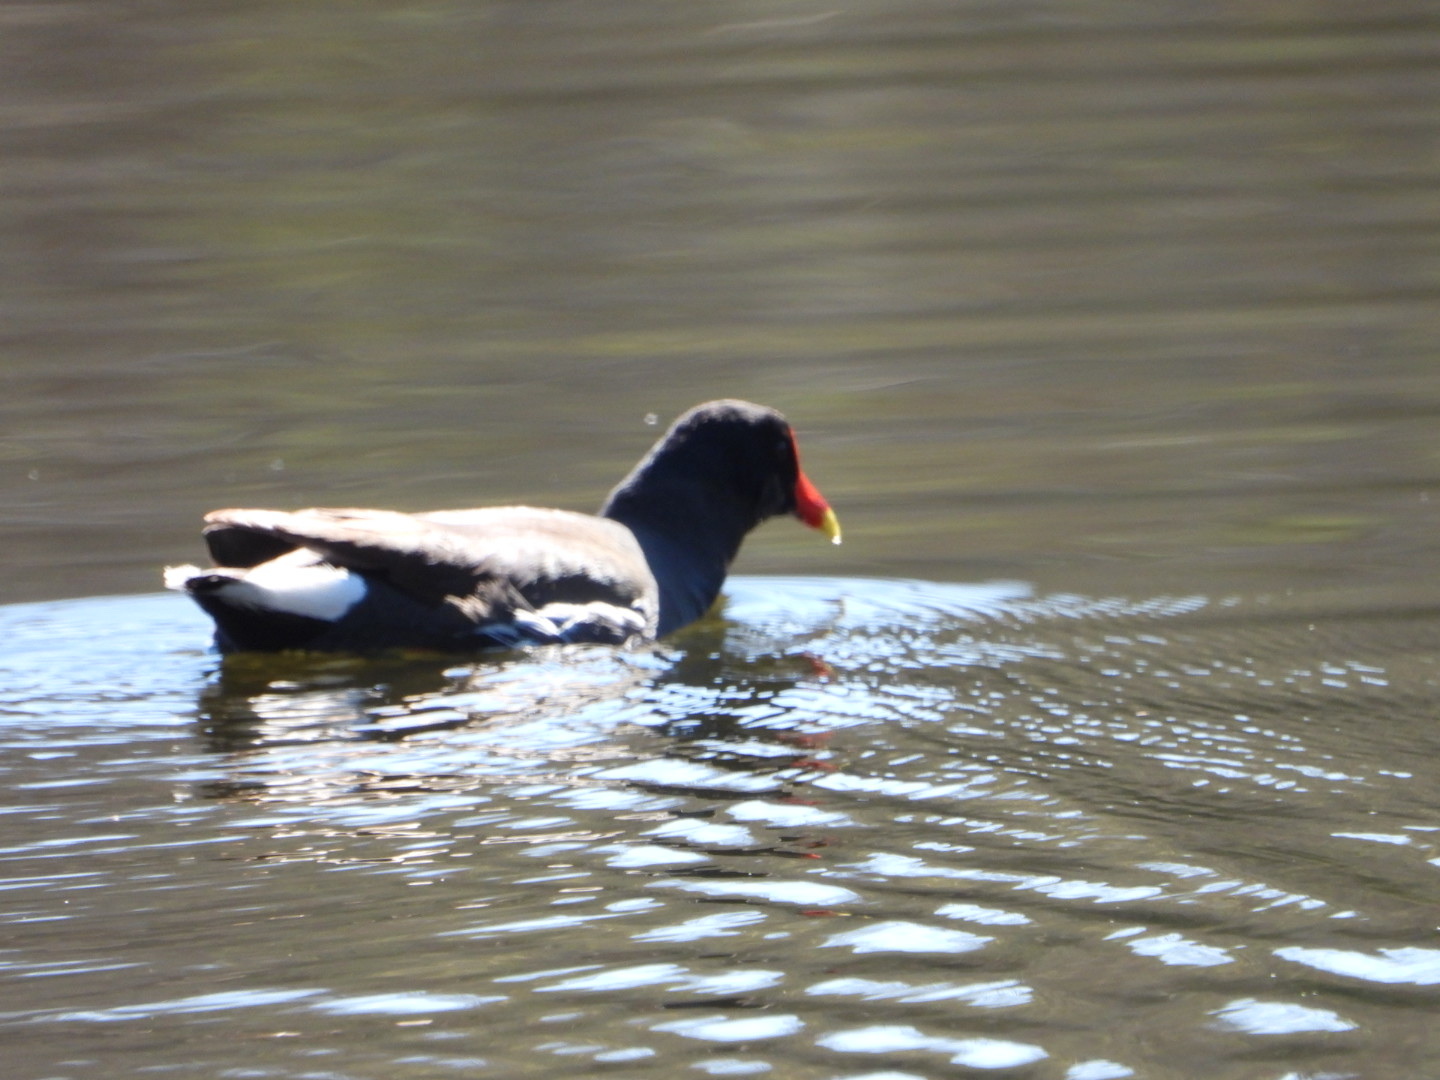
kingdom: Animalia
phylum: Chordata
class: Aves
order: Gruiformes
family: Rallidae
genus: Gallinula
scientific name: Gallinula chloropus
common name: Common moorhen
